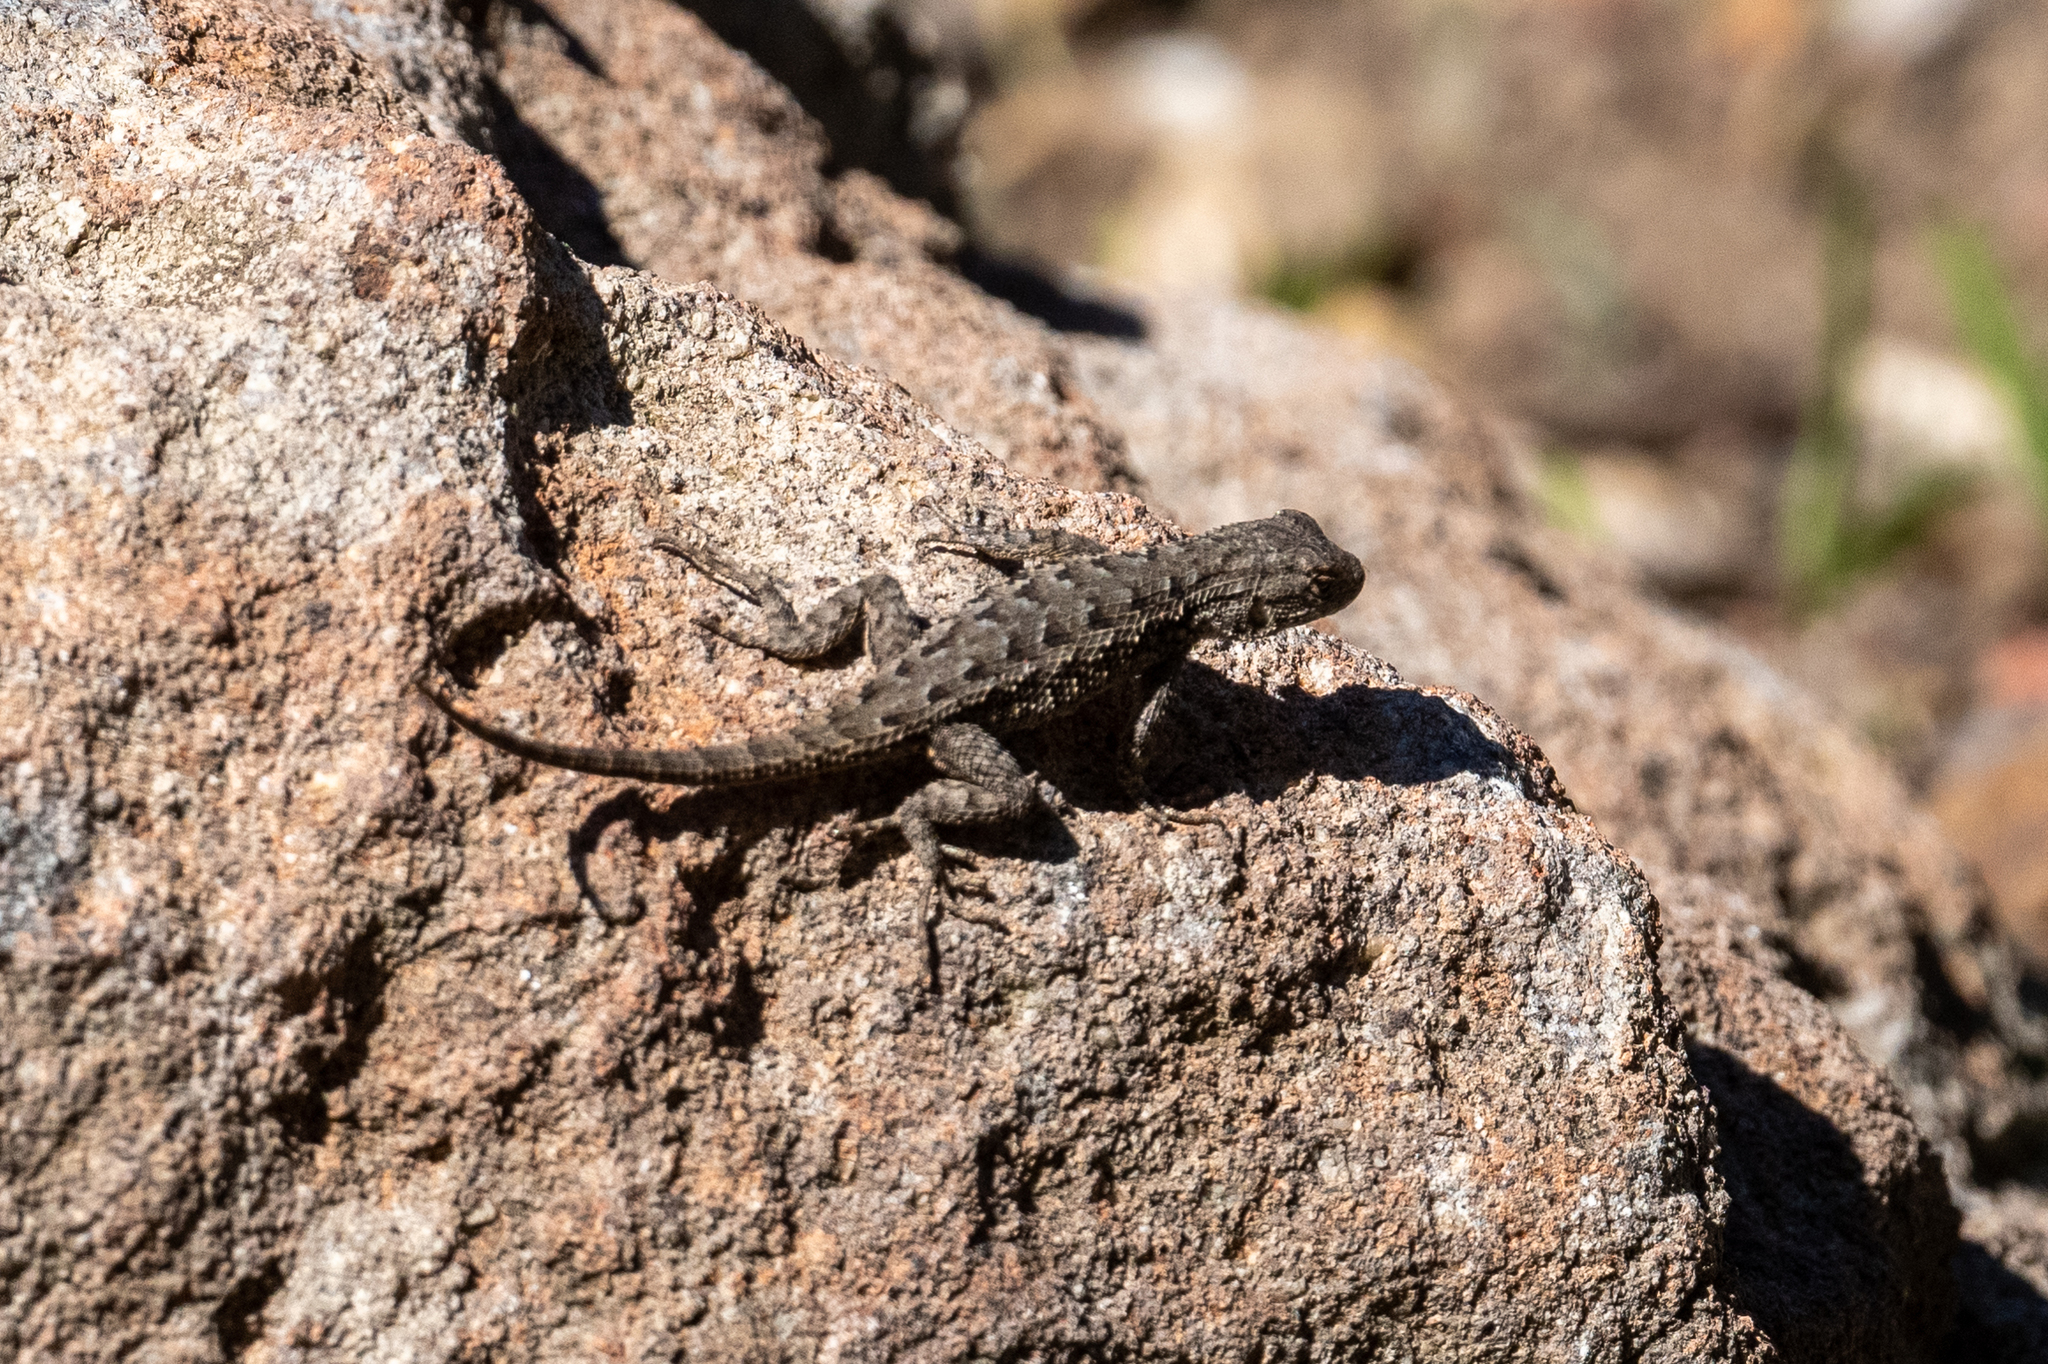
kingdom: Animalia
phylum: Chordata
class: Squamata
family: Phrynosomatidae
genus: Sceloporus
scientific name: Sceloporus occidentalis
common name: Western fence lizard
